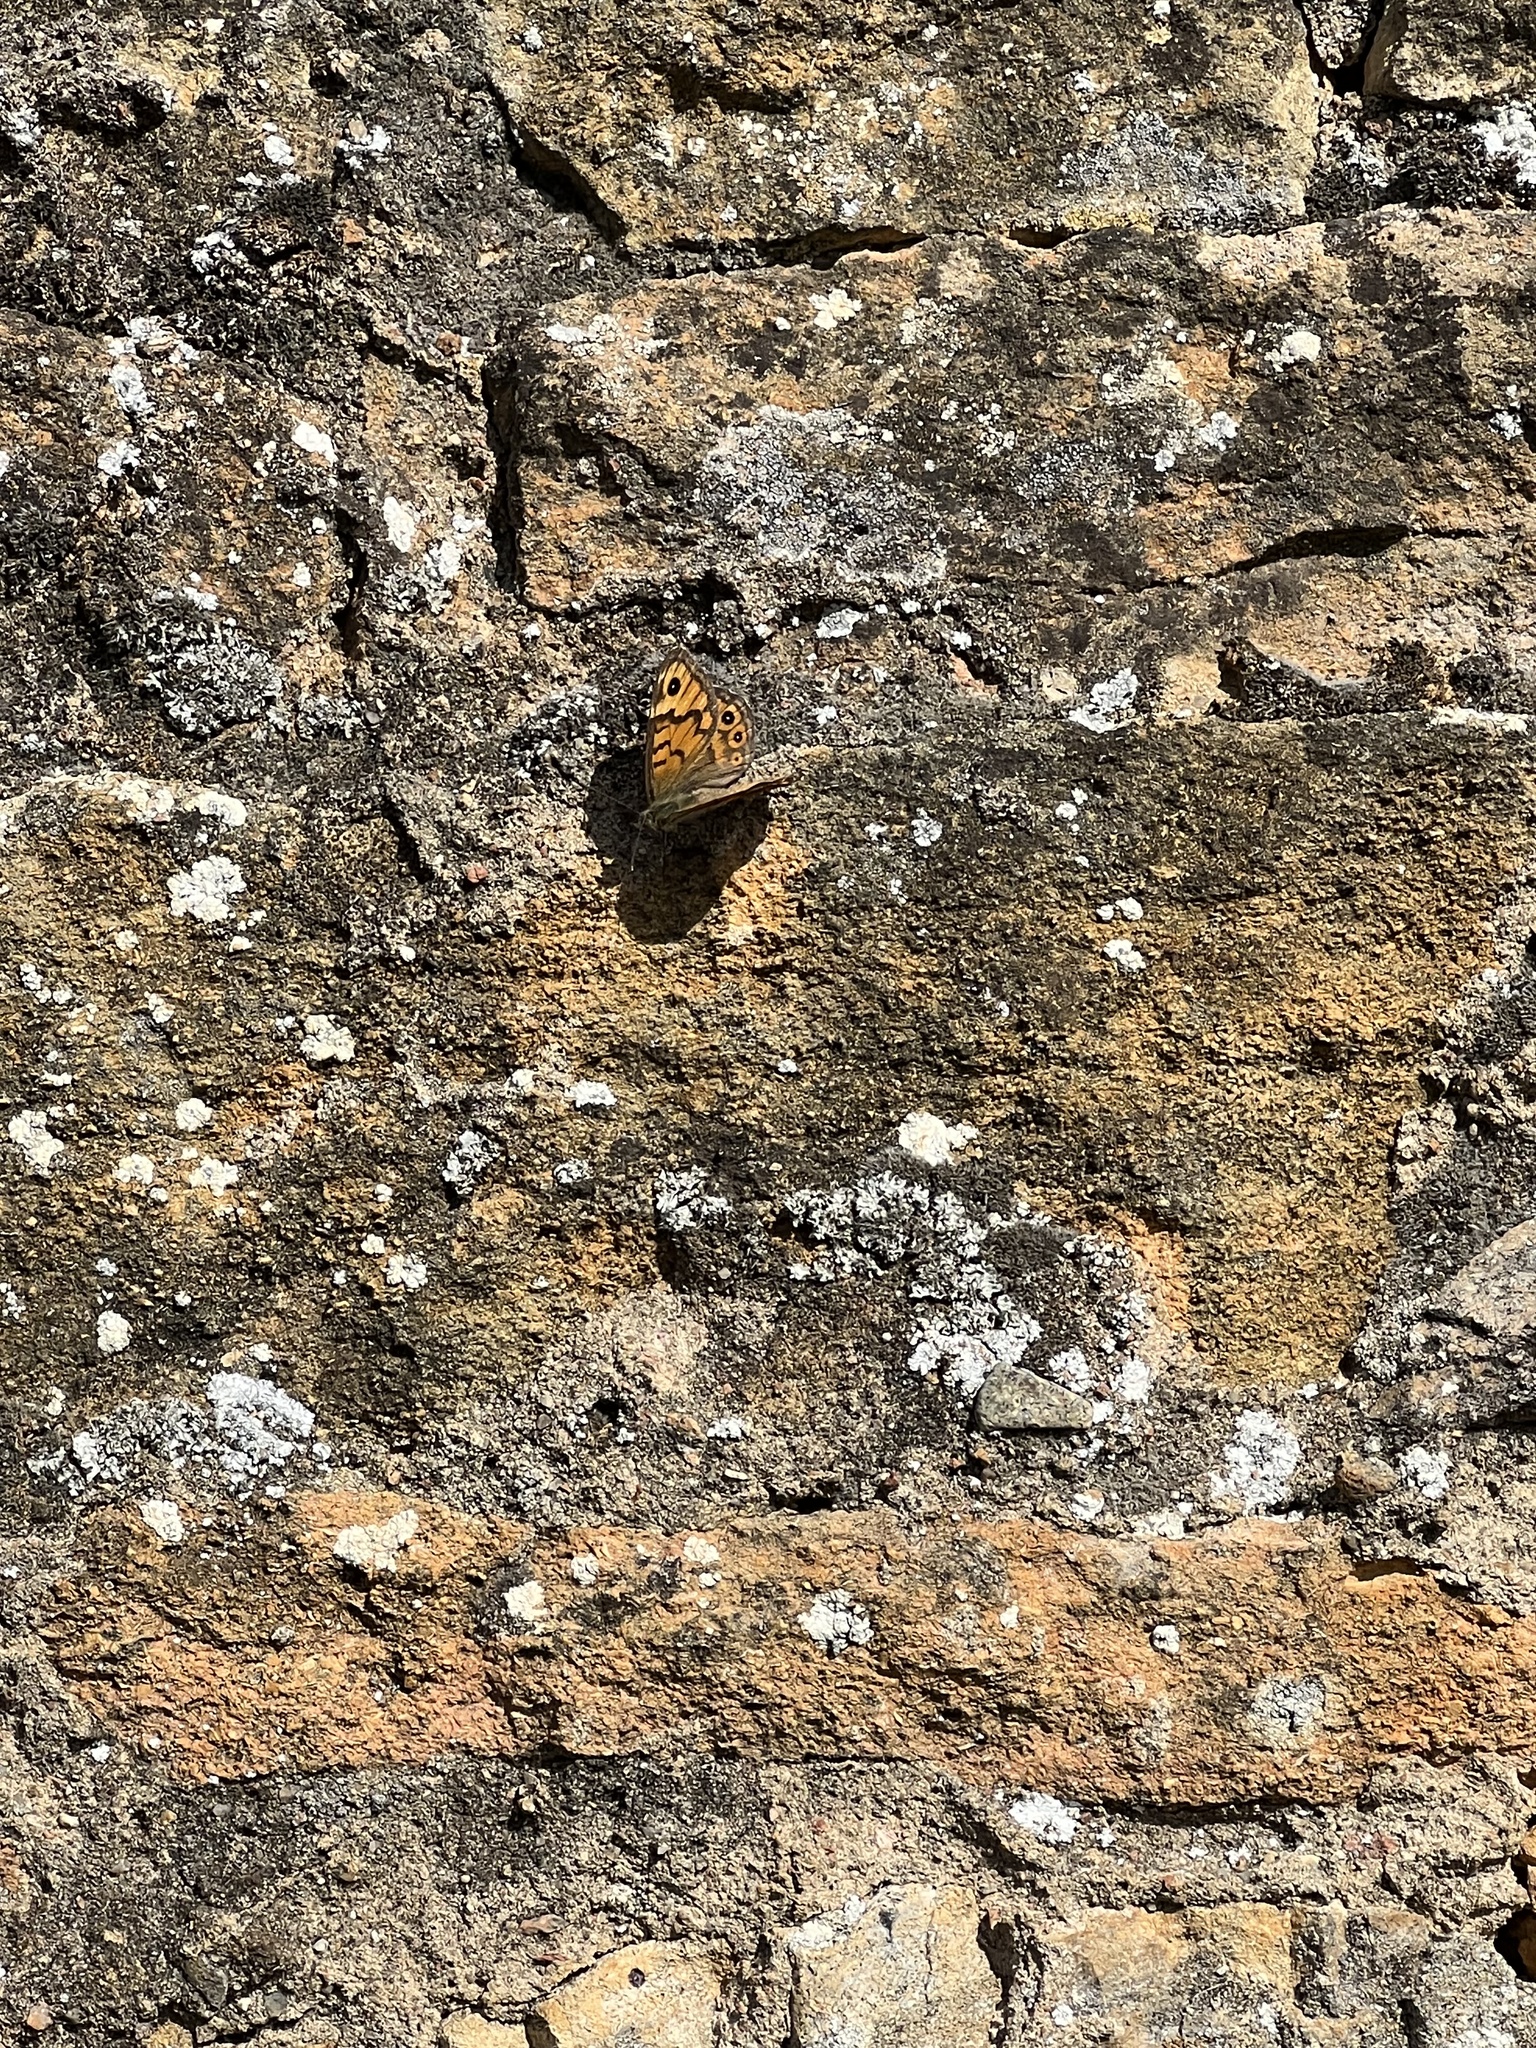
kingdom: Animalia
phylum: Arthropoda
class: Insecta
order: Lepidoptera
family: Nymphalidae
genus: Pararge
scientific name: Pararge Lasiommata megera
